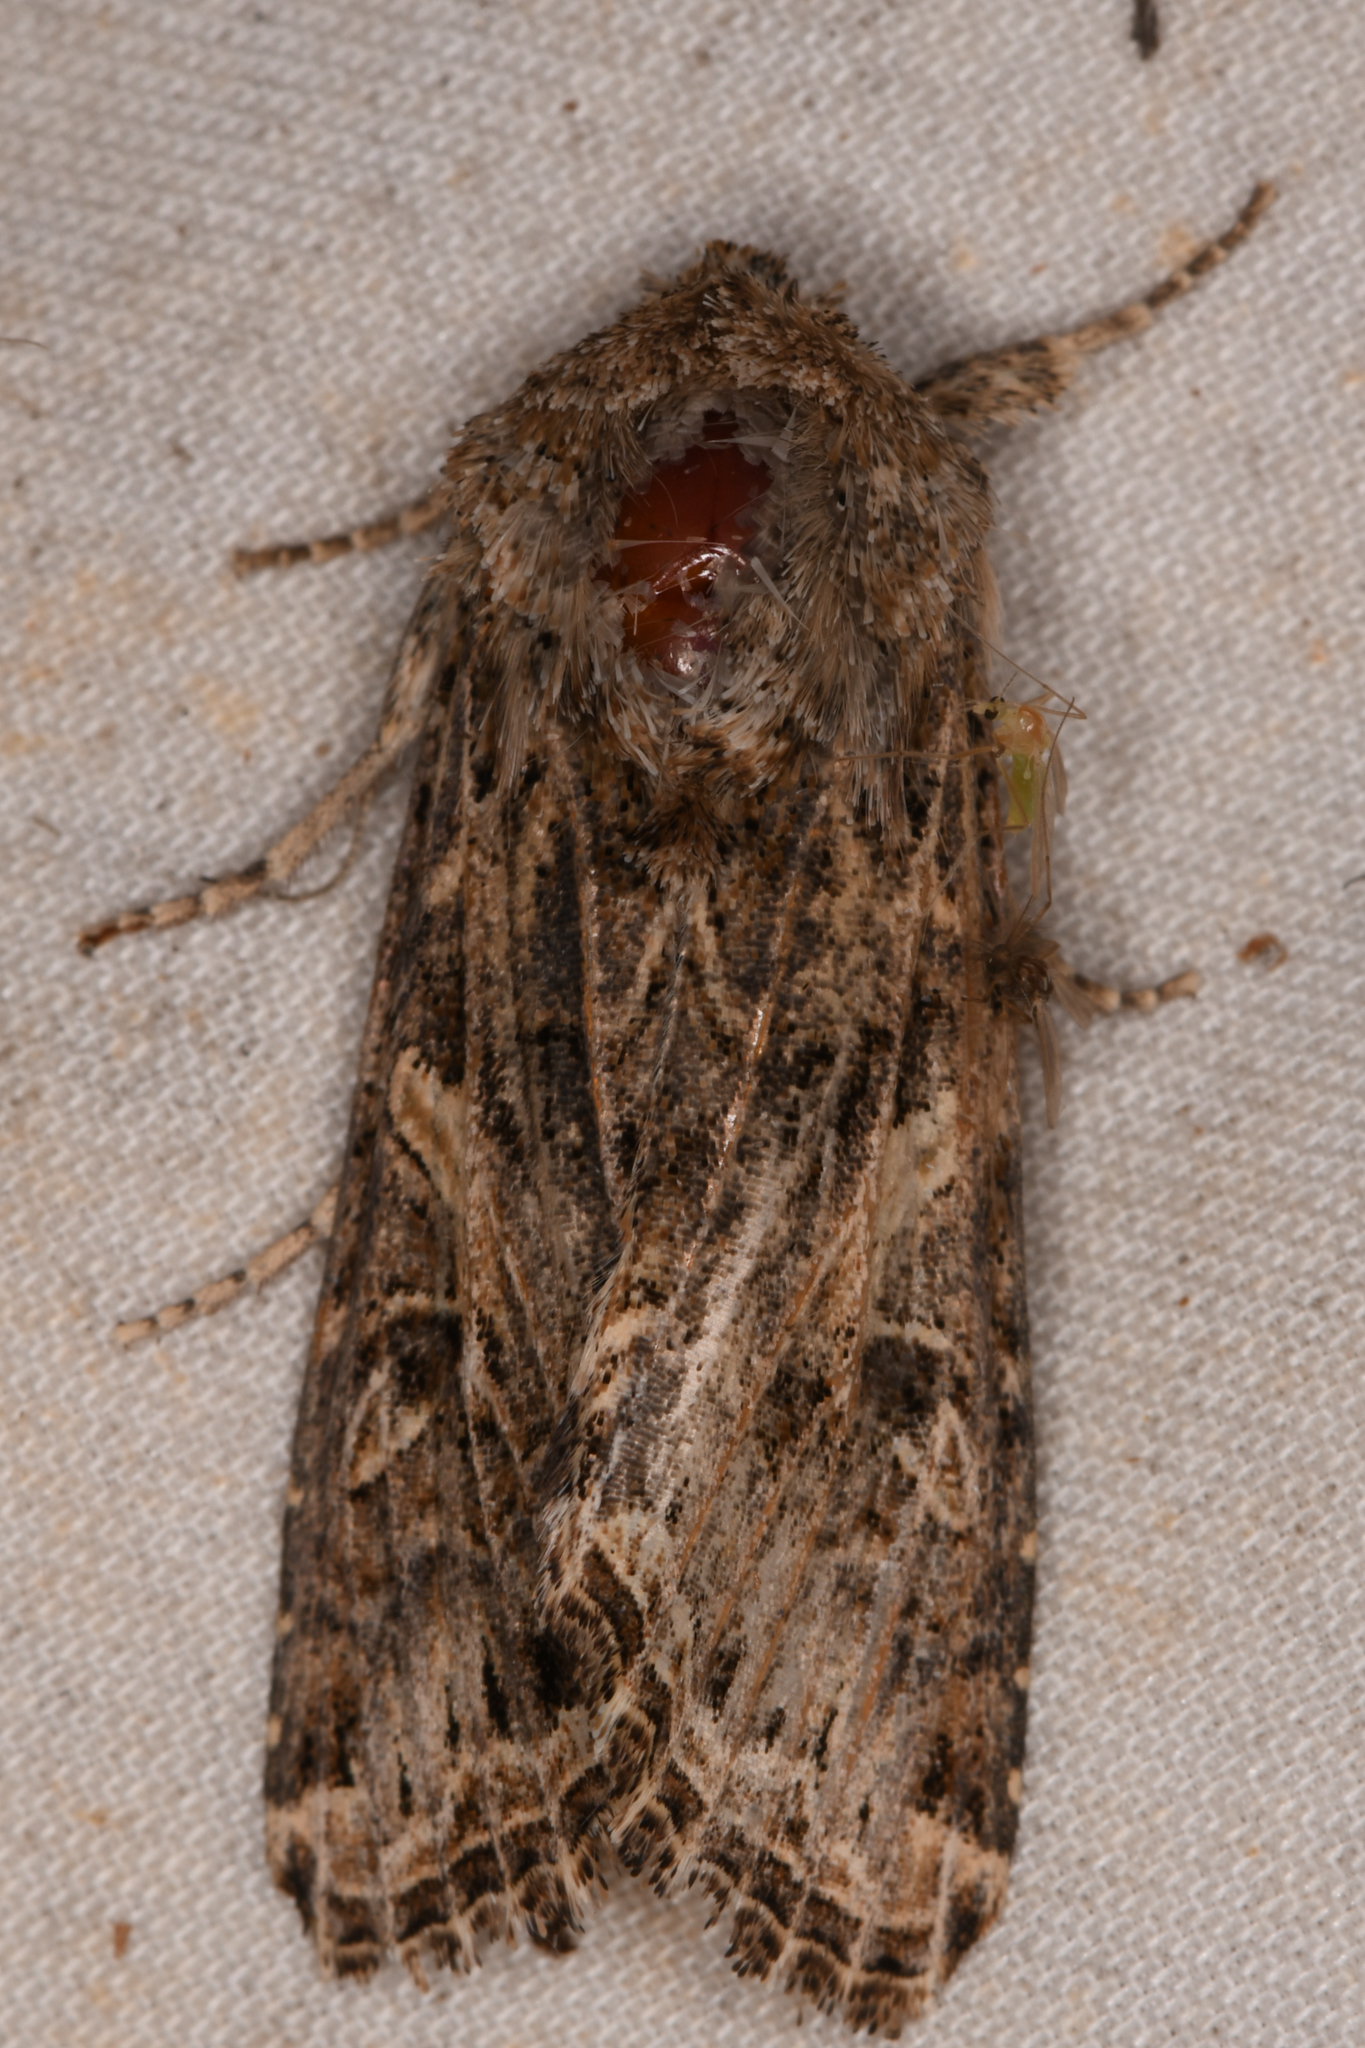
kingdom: Animalia
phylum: Arthropoda
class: Insecta
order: Lepidoptera
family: Noctuidae
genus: Spodoptera
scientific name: Spodoptera praefica
